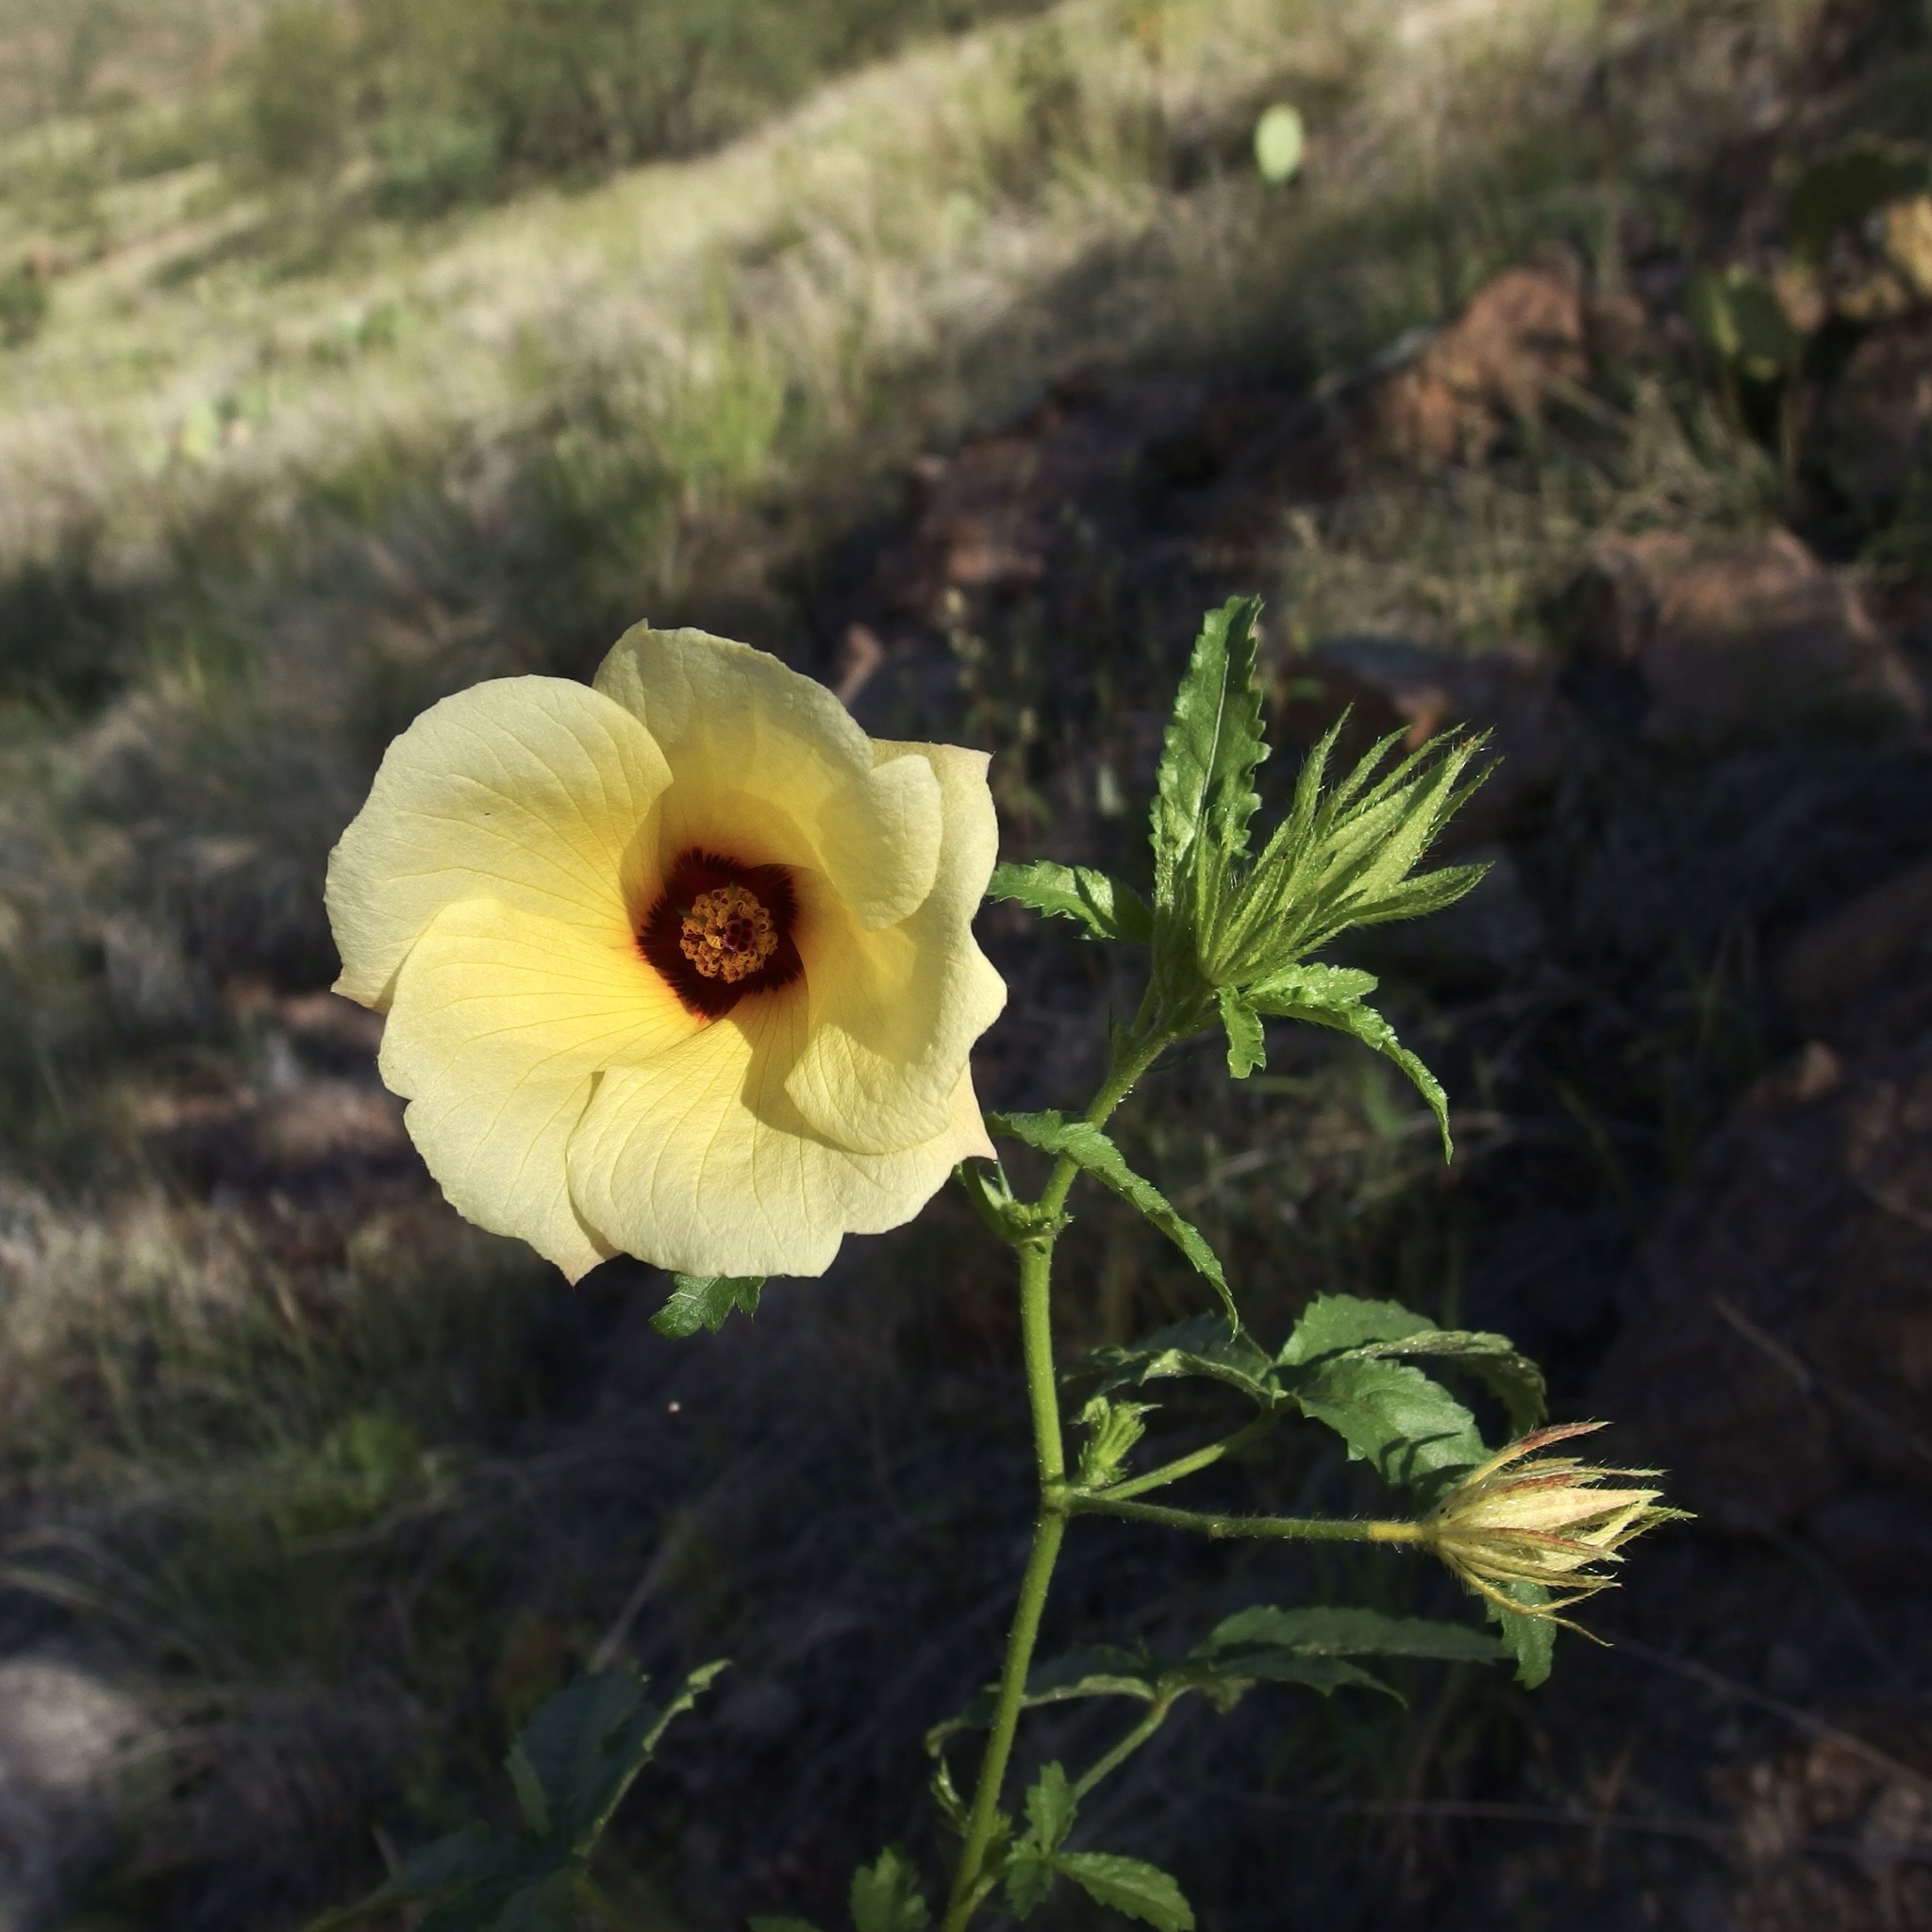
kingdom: Plantae
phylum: Tracheophyta
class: Magnoliopsida
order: Malvales
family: Malvaceae
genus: Hibiscus
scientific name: Hibiscus biseptus
